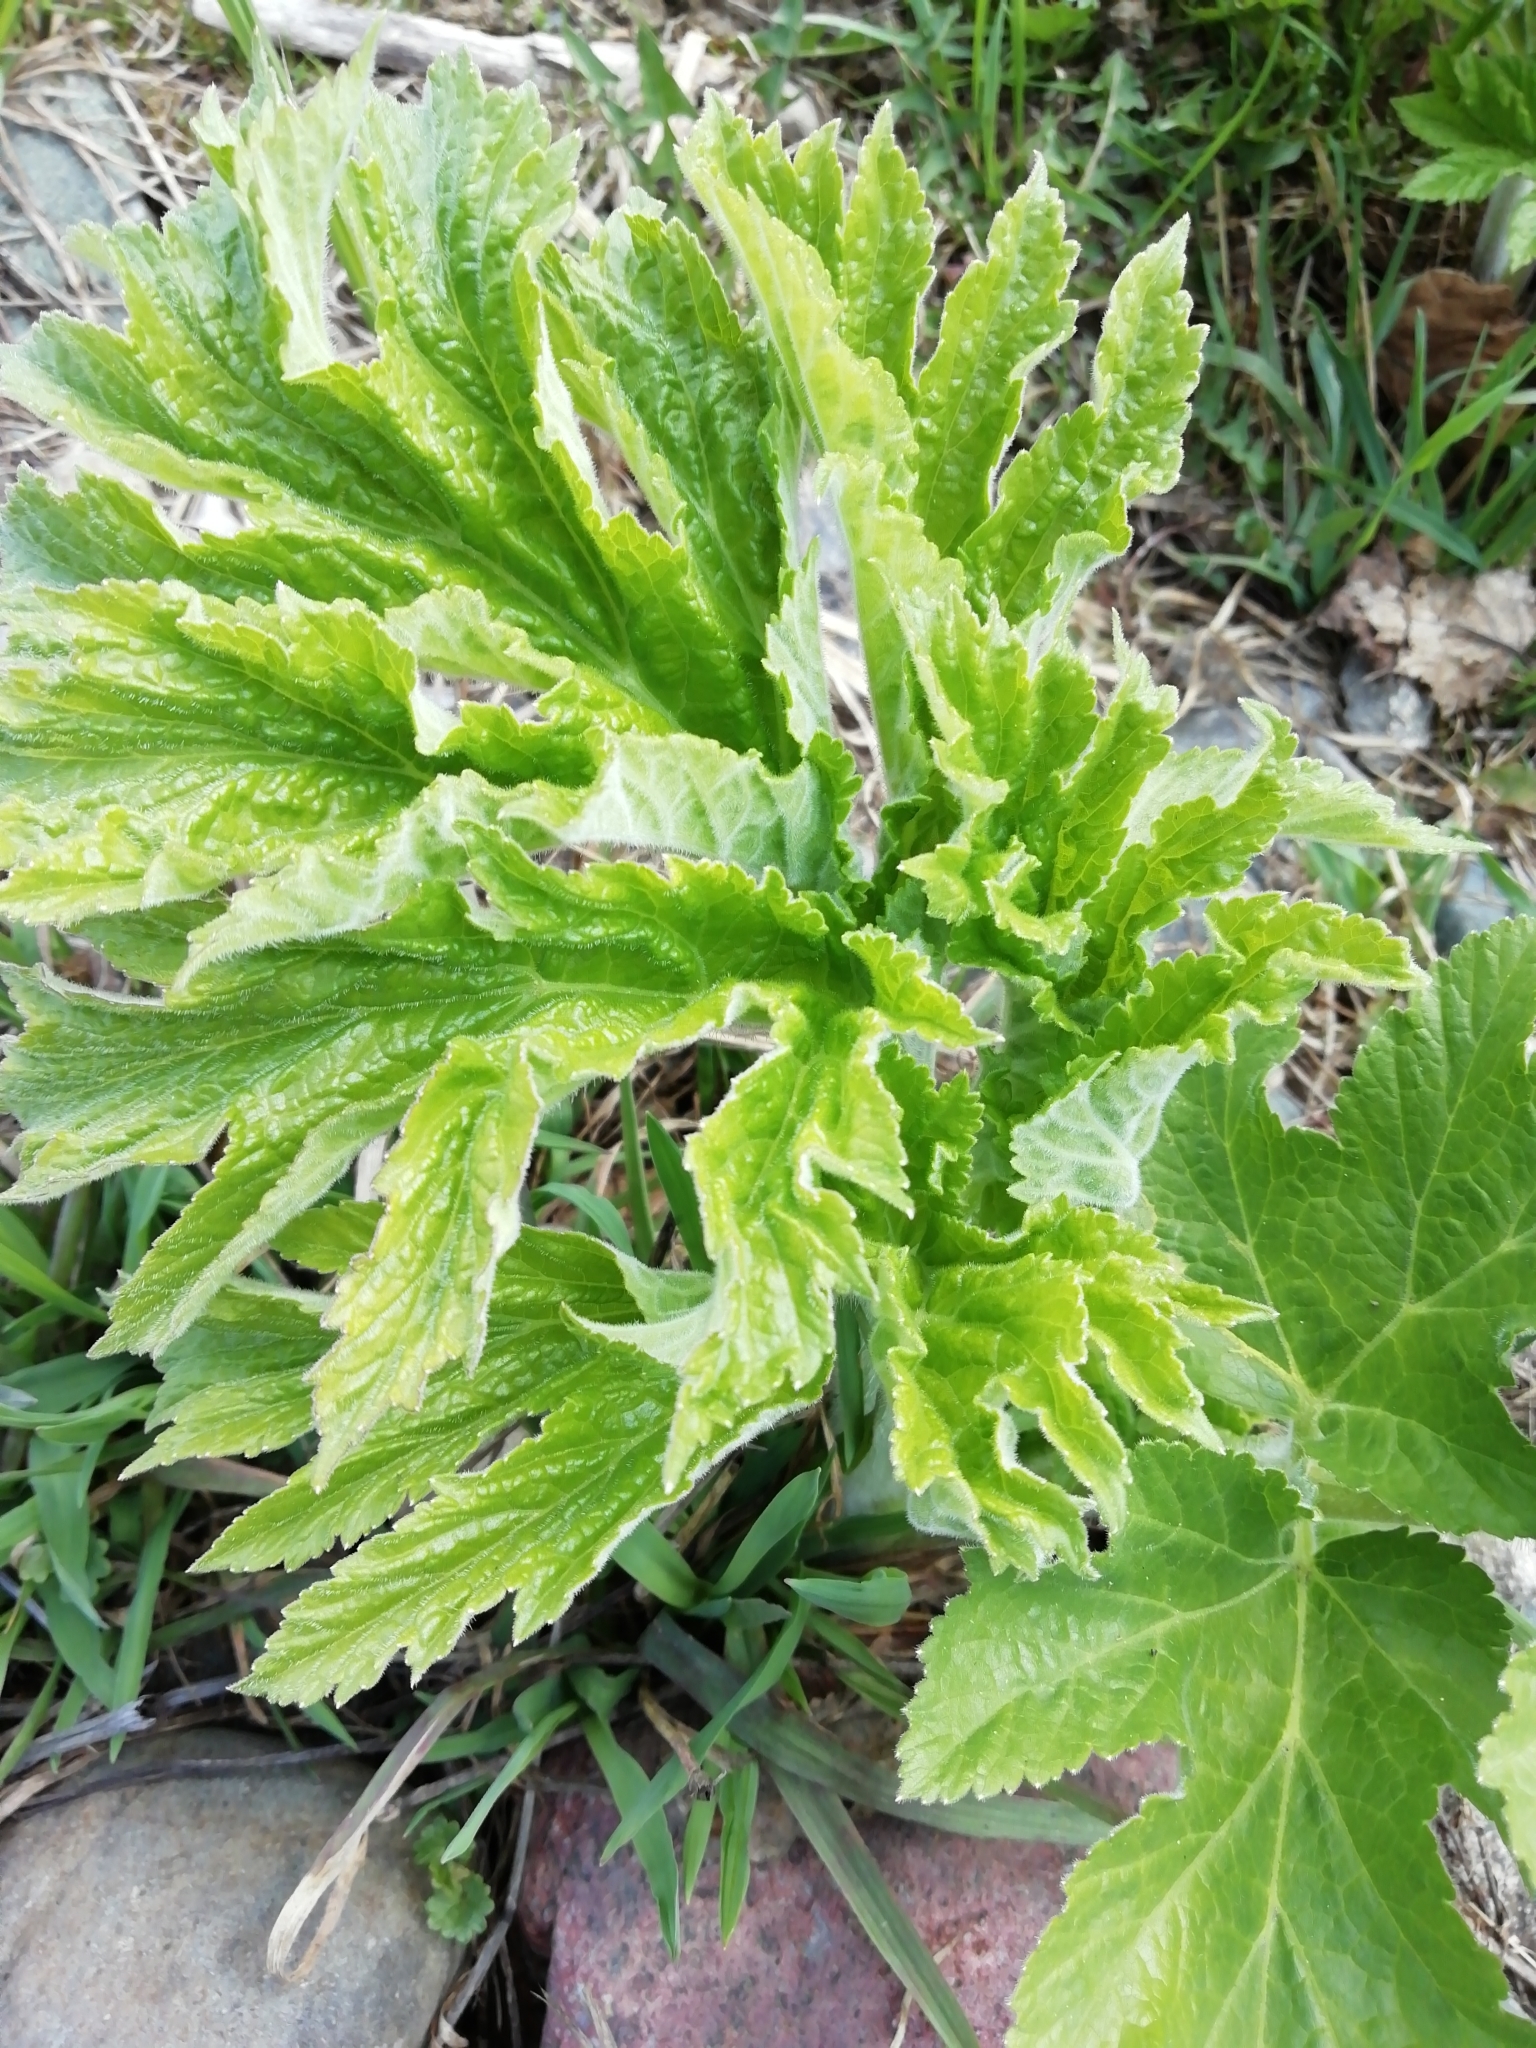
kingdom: Plantae
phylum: Tracheophyta
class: Magnoliopsida
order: Apiales
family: Apiaceae
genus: Heracleum
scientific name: Heracleum dissectum
